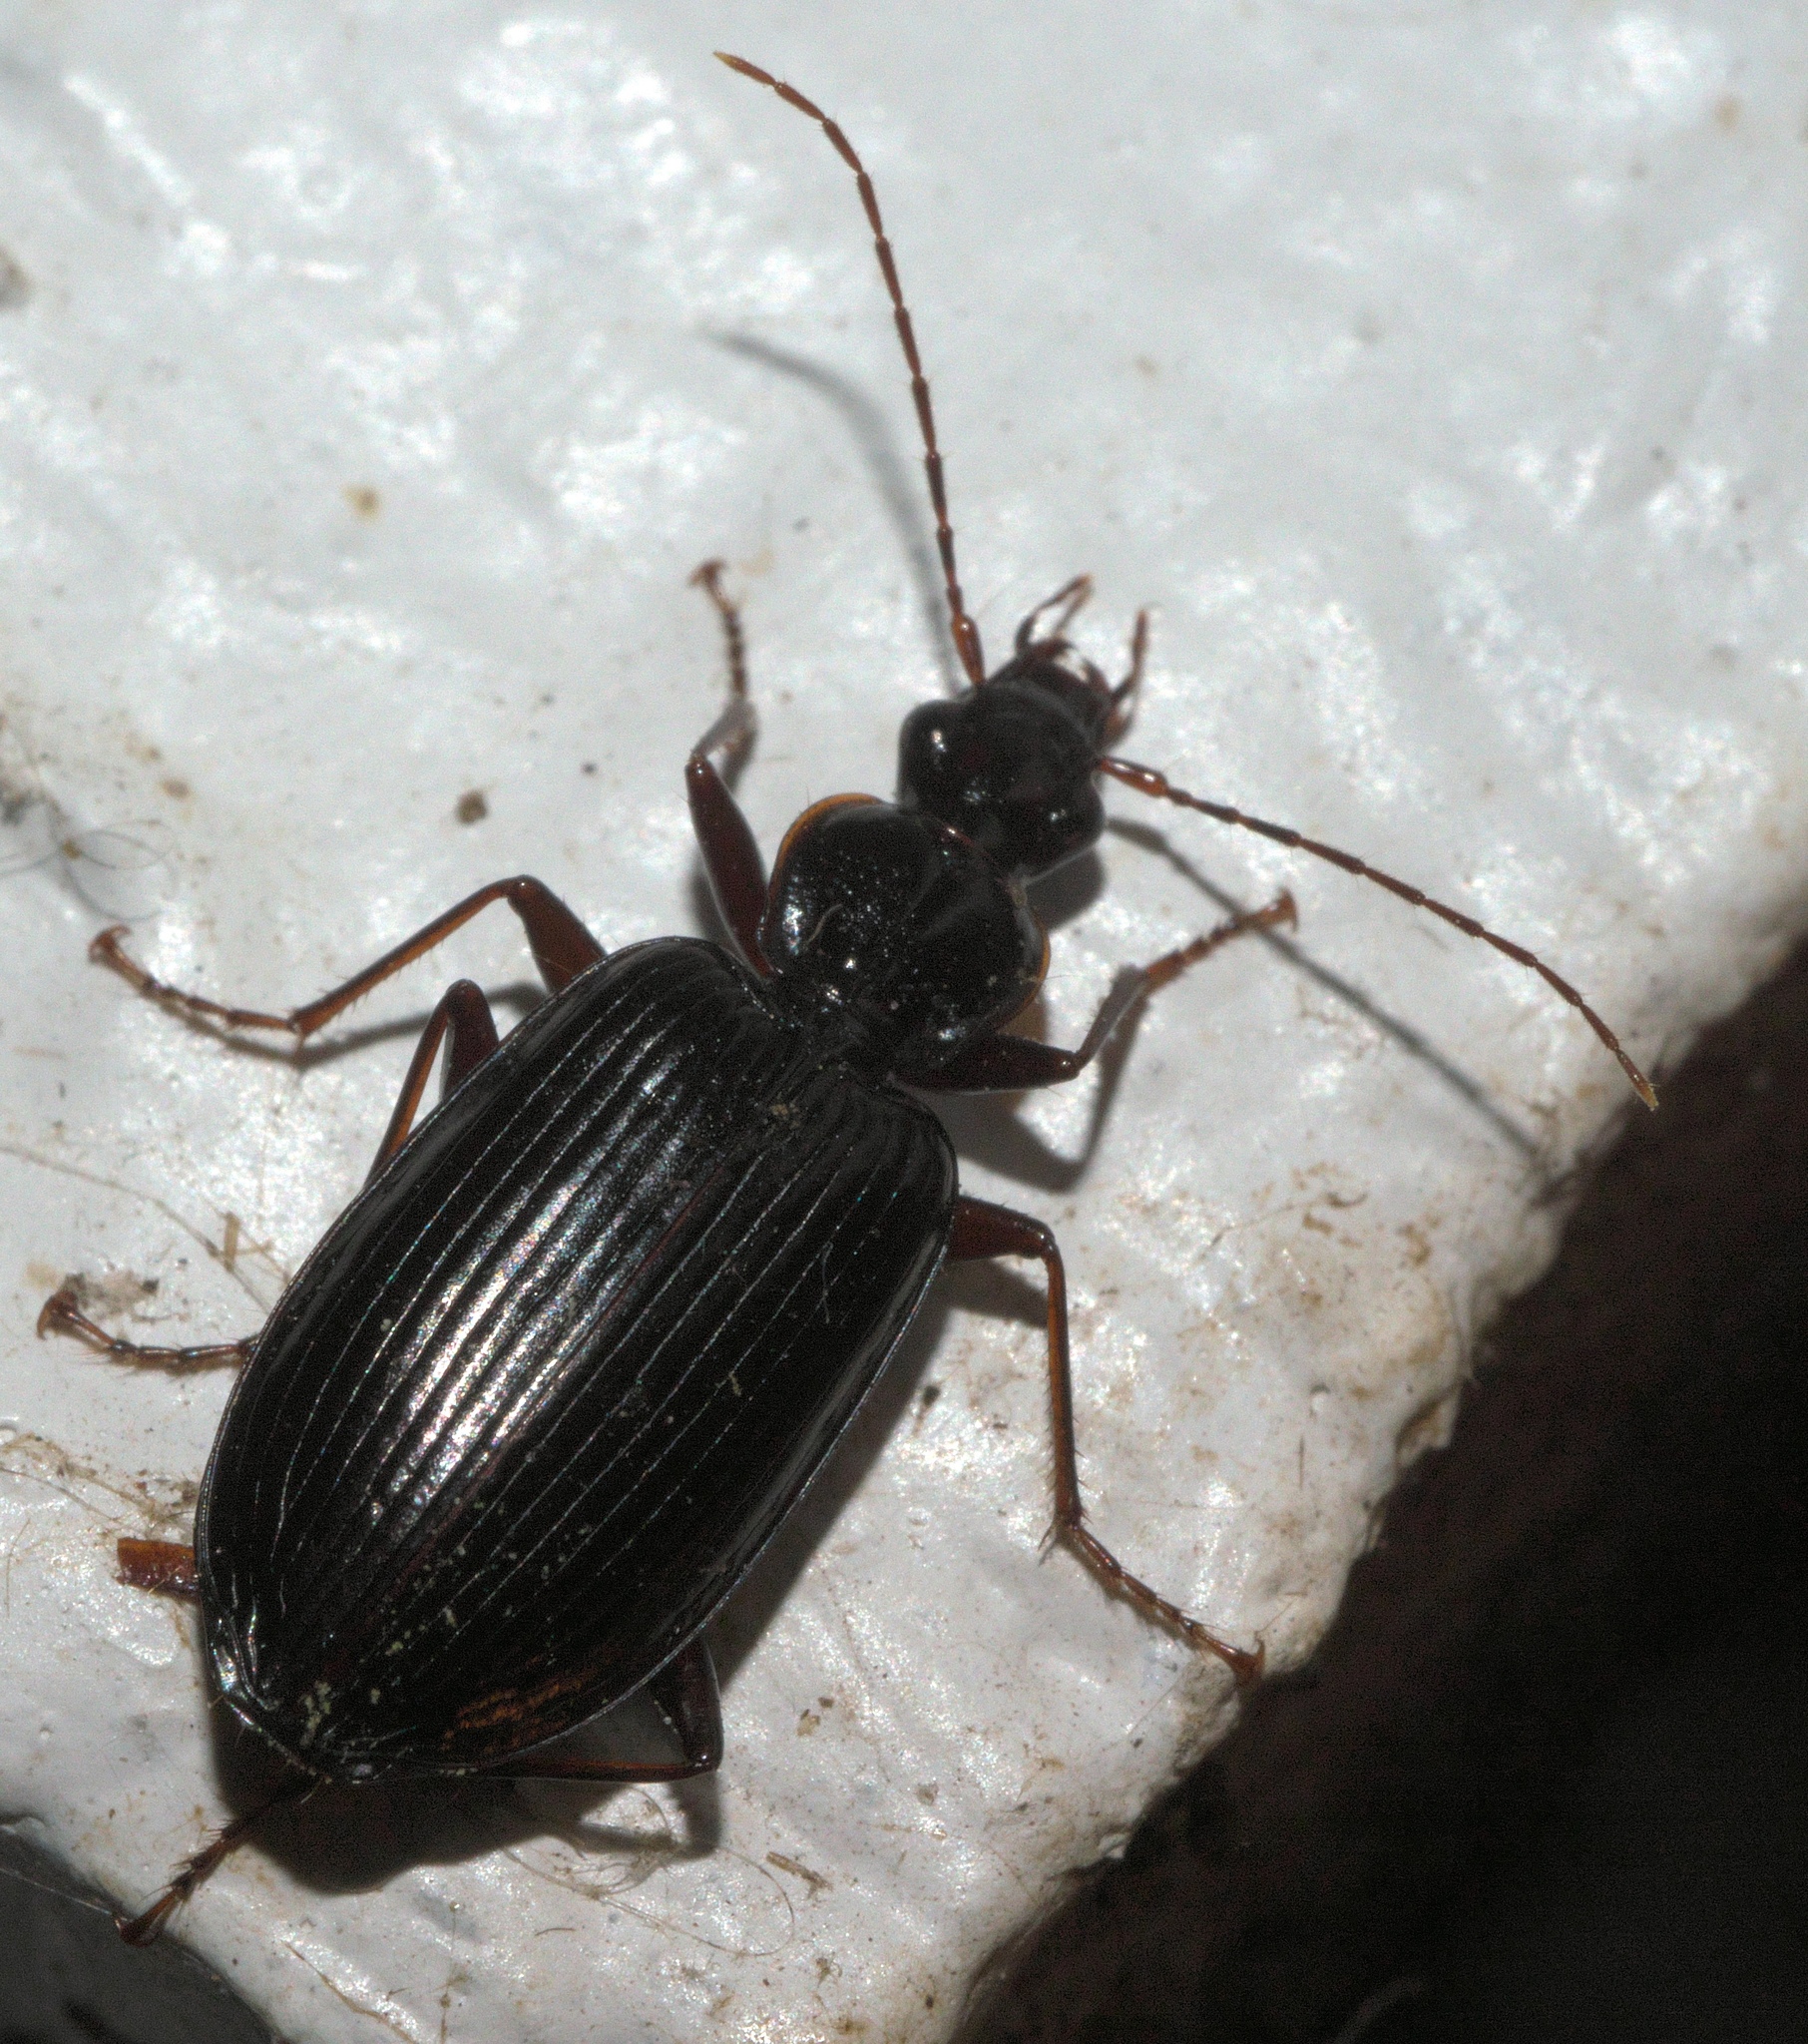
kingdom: Animalia
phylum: Arthropoda
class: Insecta
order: Coleoptera
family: Carabidae
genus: Platynus
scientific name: Platynus cincticollis
